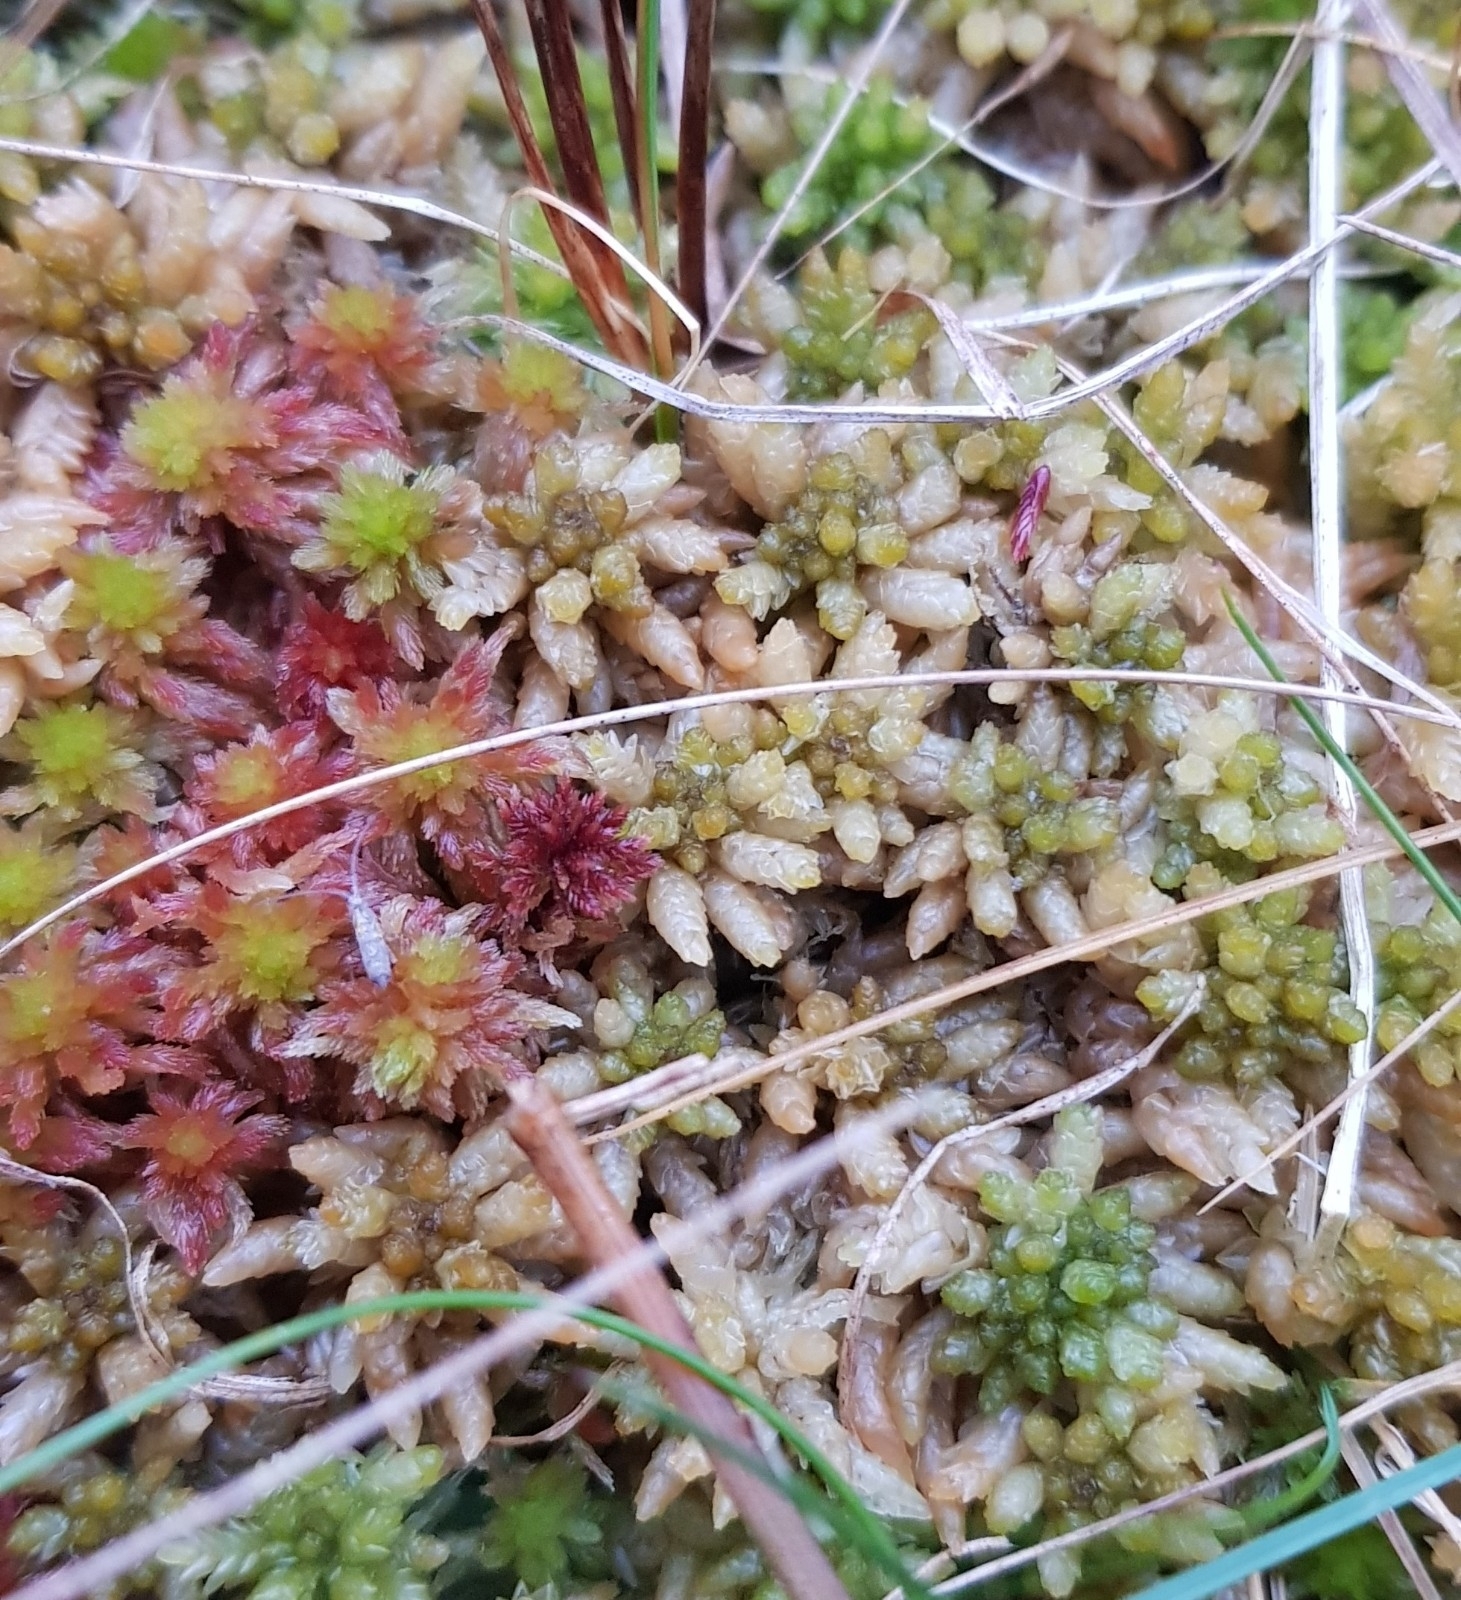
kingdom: Plantae
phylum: Bryophyta
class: Sphagnopsida
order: Sphagnales
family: Sphagnaceae
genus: Sphagnum
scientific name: Sphagnum papillosum
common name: Papillose peat moss
